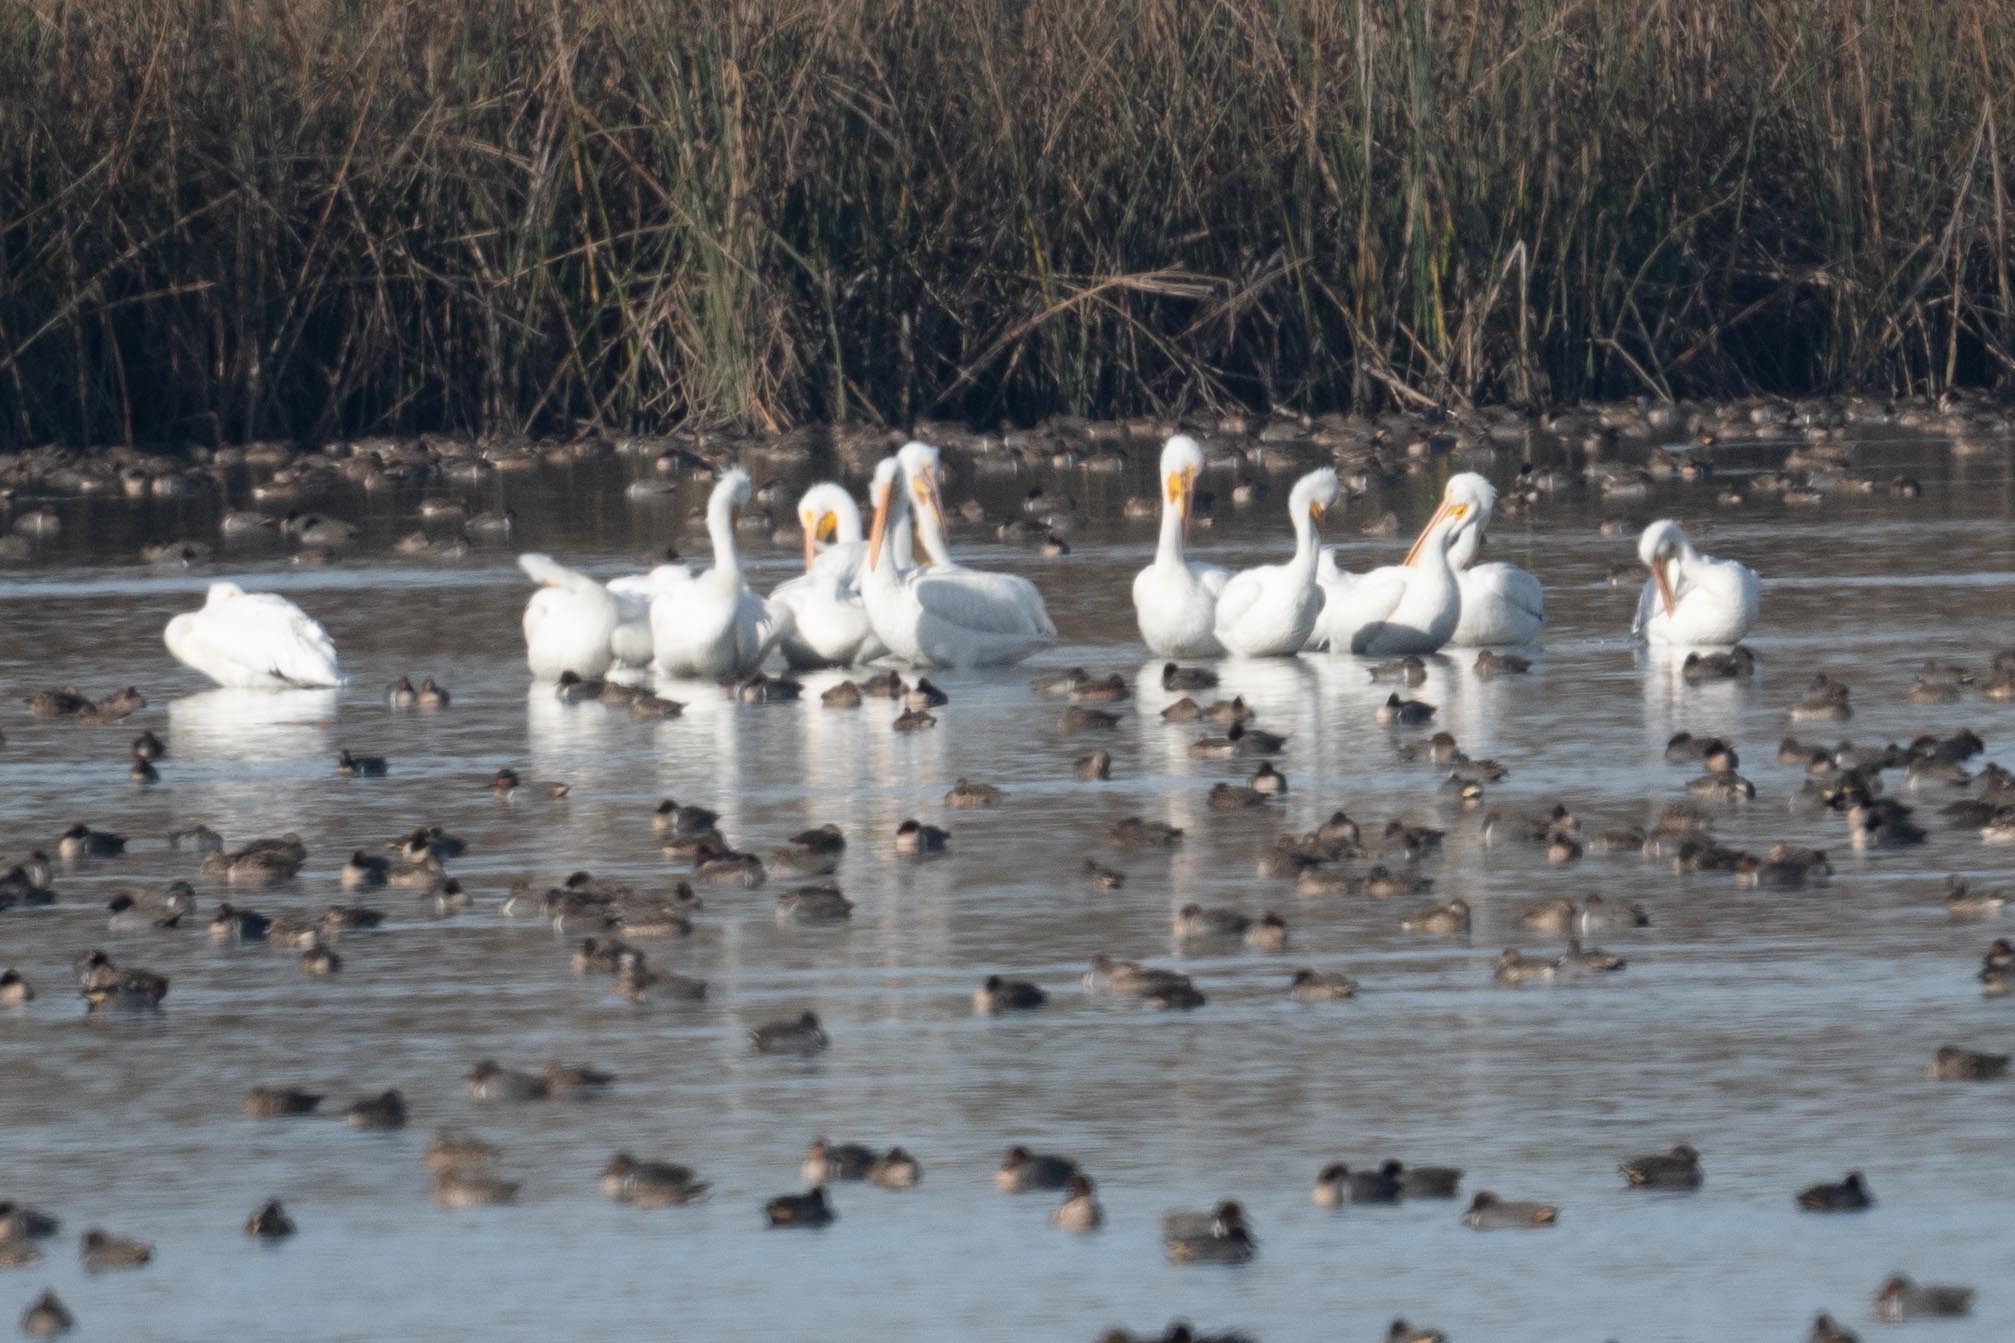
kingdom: Animalia
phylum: Chordata
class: Aves
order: Pelecaniformes
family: Pelecanidae
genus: Pelecanus
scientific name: Pelecanus erythrorhynchos
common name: American white pelican
